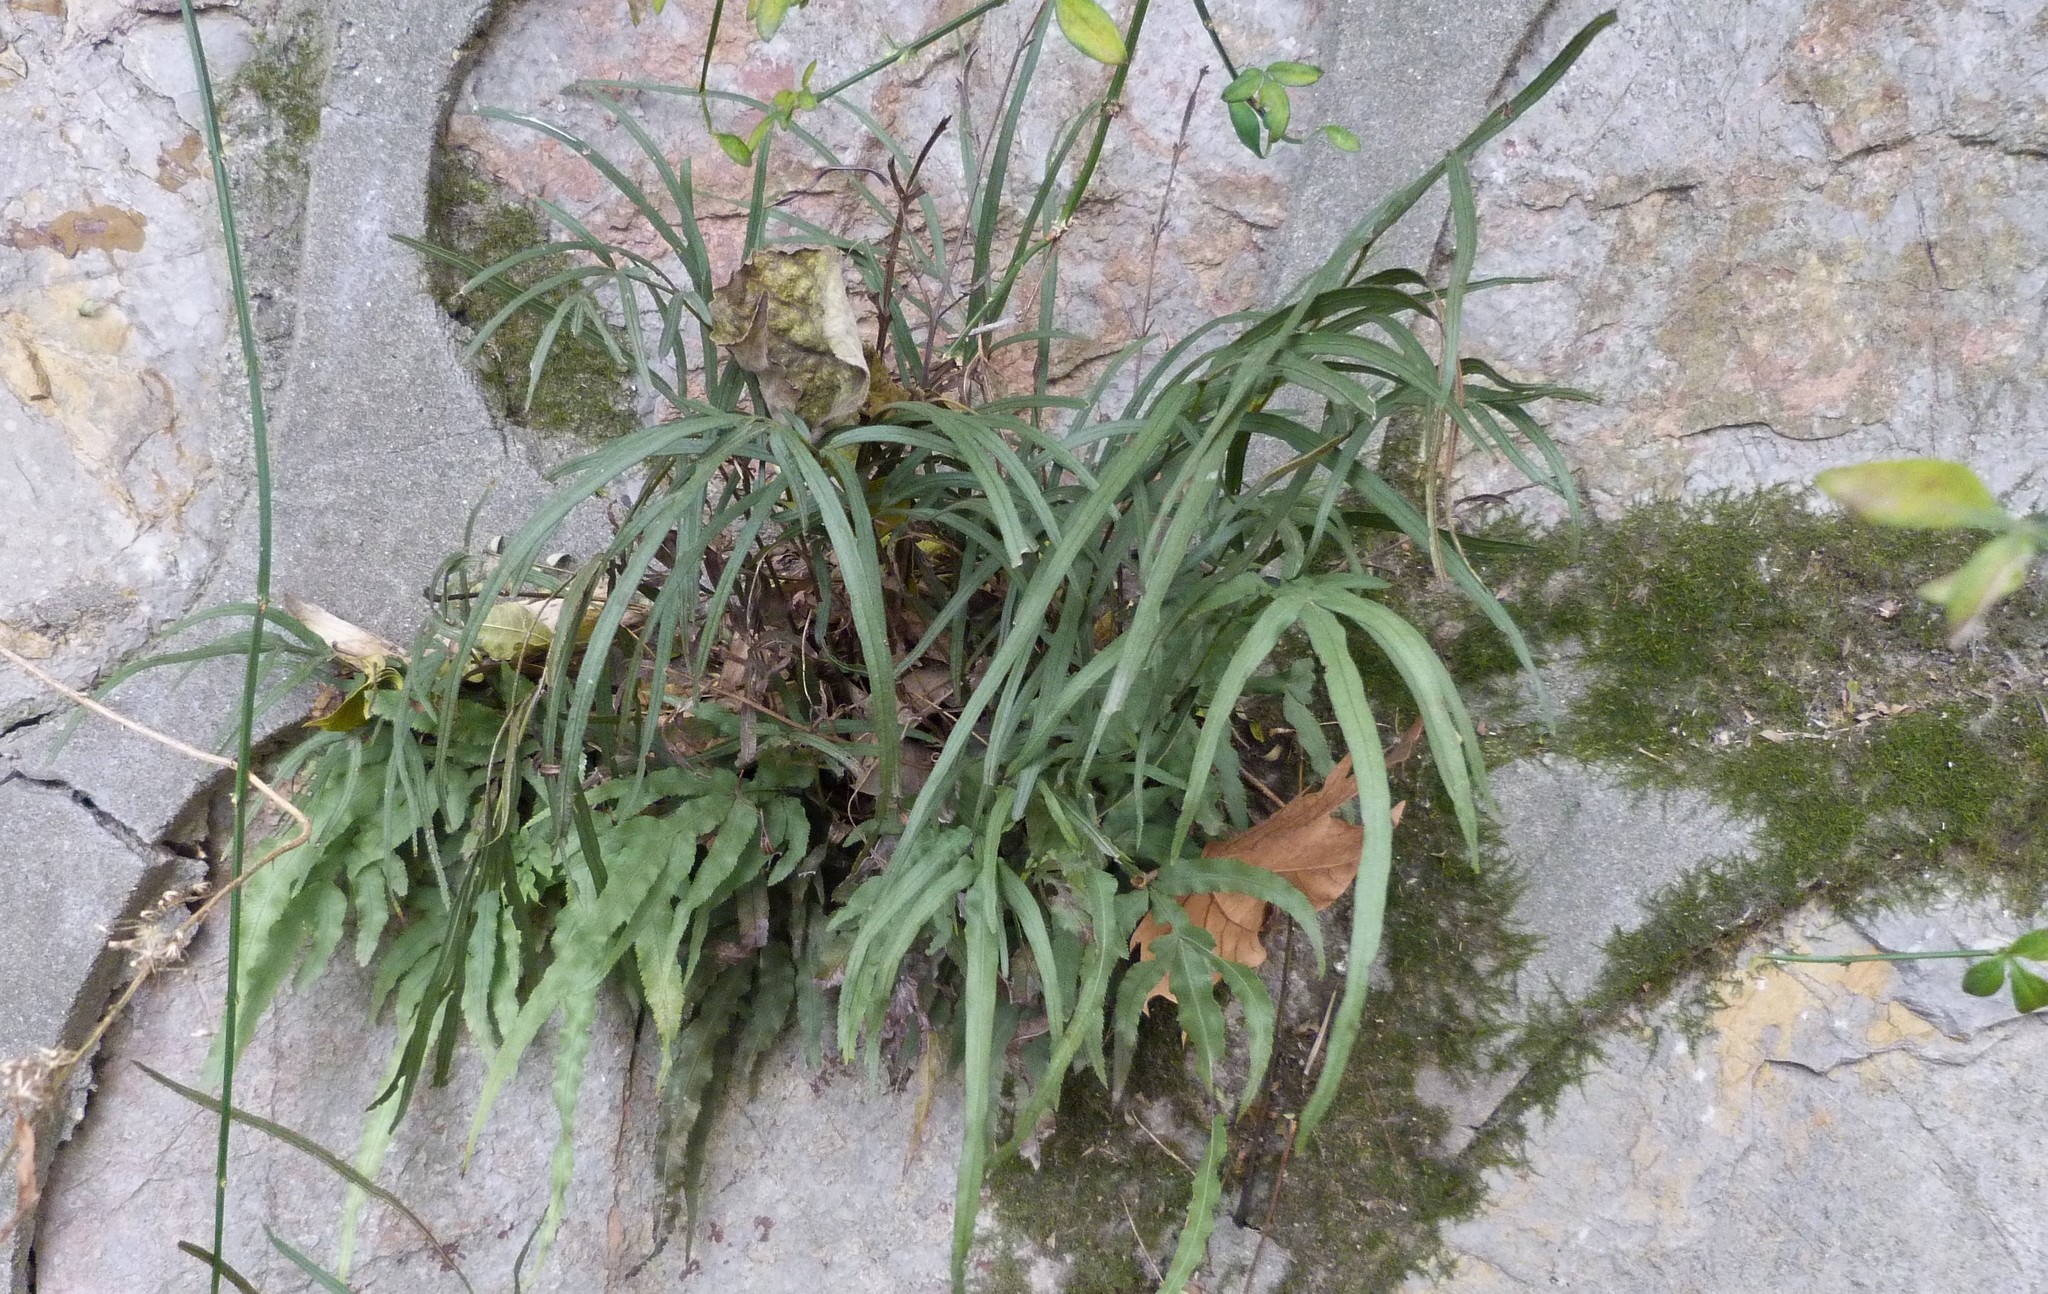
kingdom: Plantae
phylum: Tracheophyta
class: Polypodiopsida
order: Polypodiales
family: Pteridaceae
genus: Pteris
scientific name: Pteris multifida
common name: Spider brake
